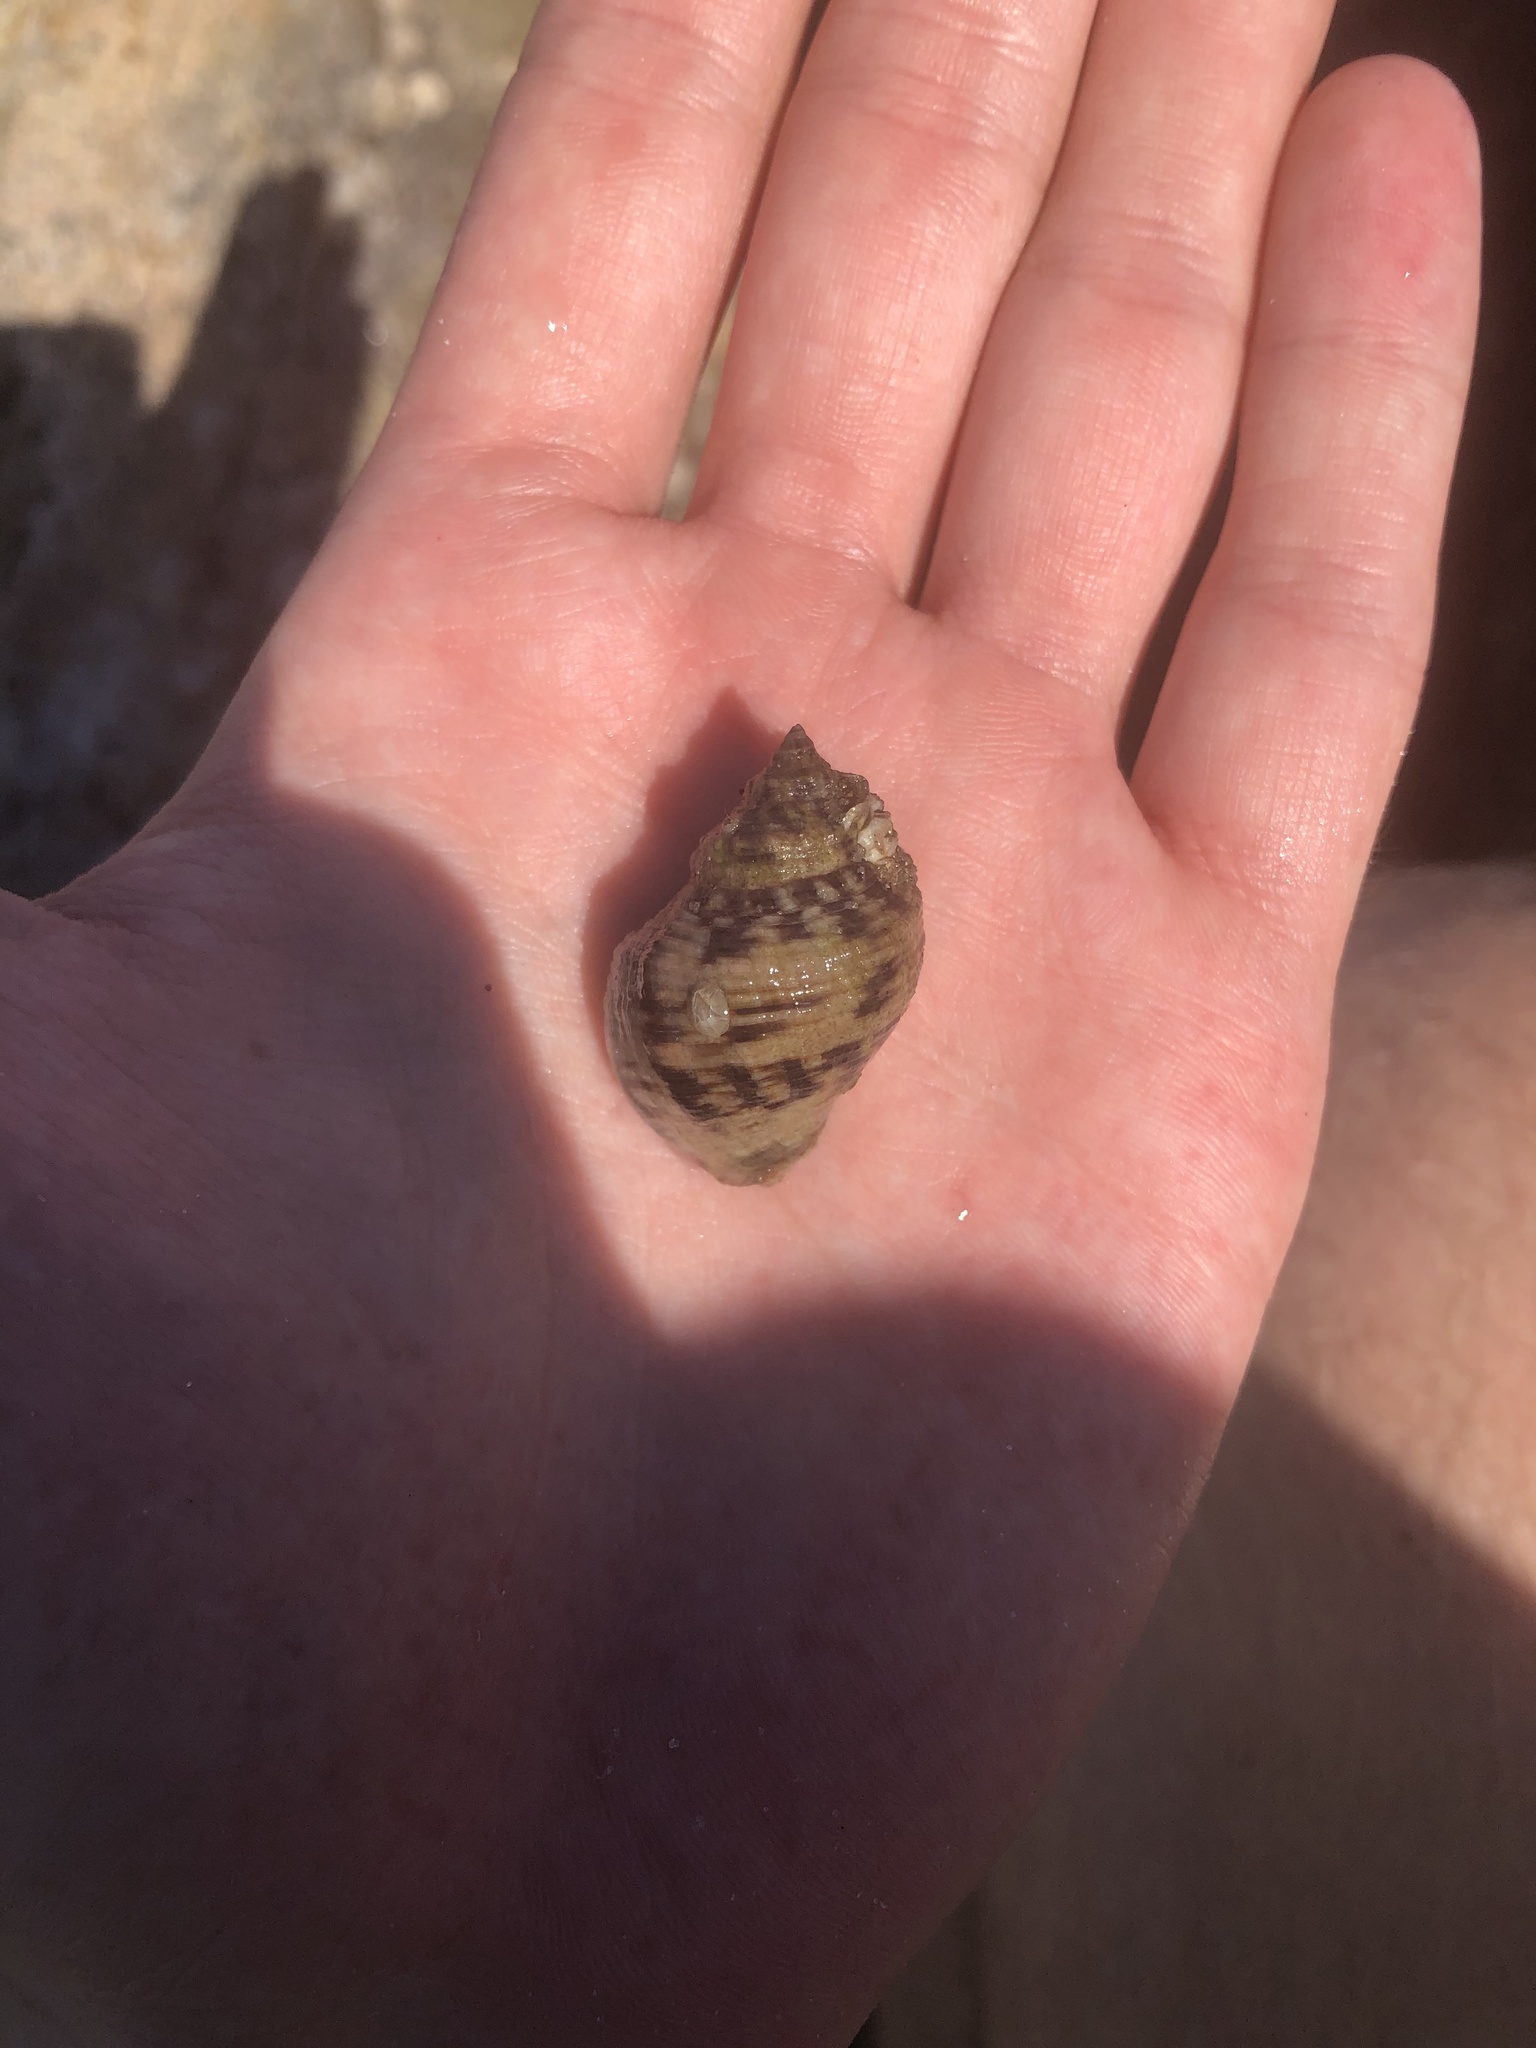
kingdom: Animalia
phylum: Mollusca
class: Gastropoda
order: Neogastropoda
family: Muricidae
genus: Stramonita
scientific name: Stramonita floridana
